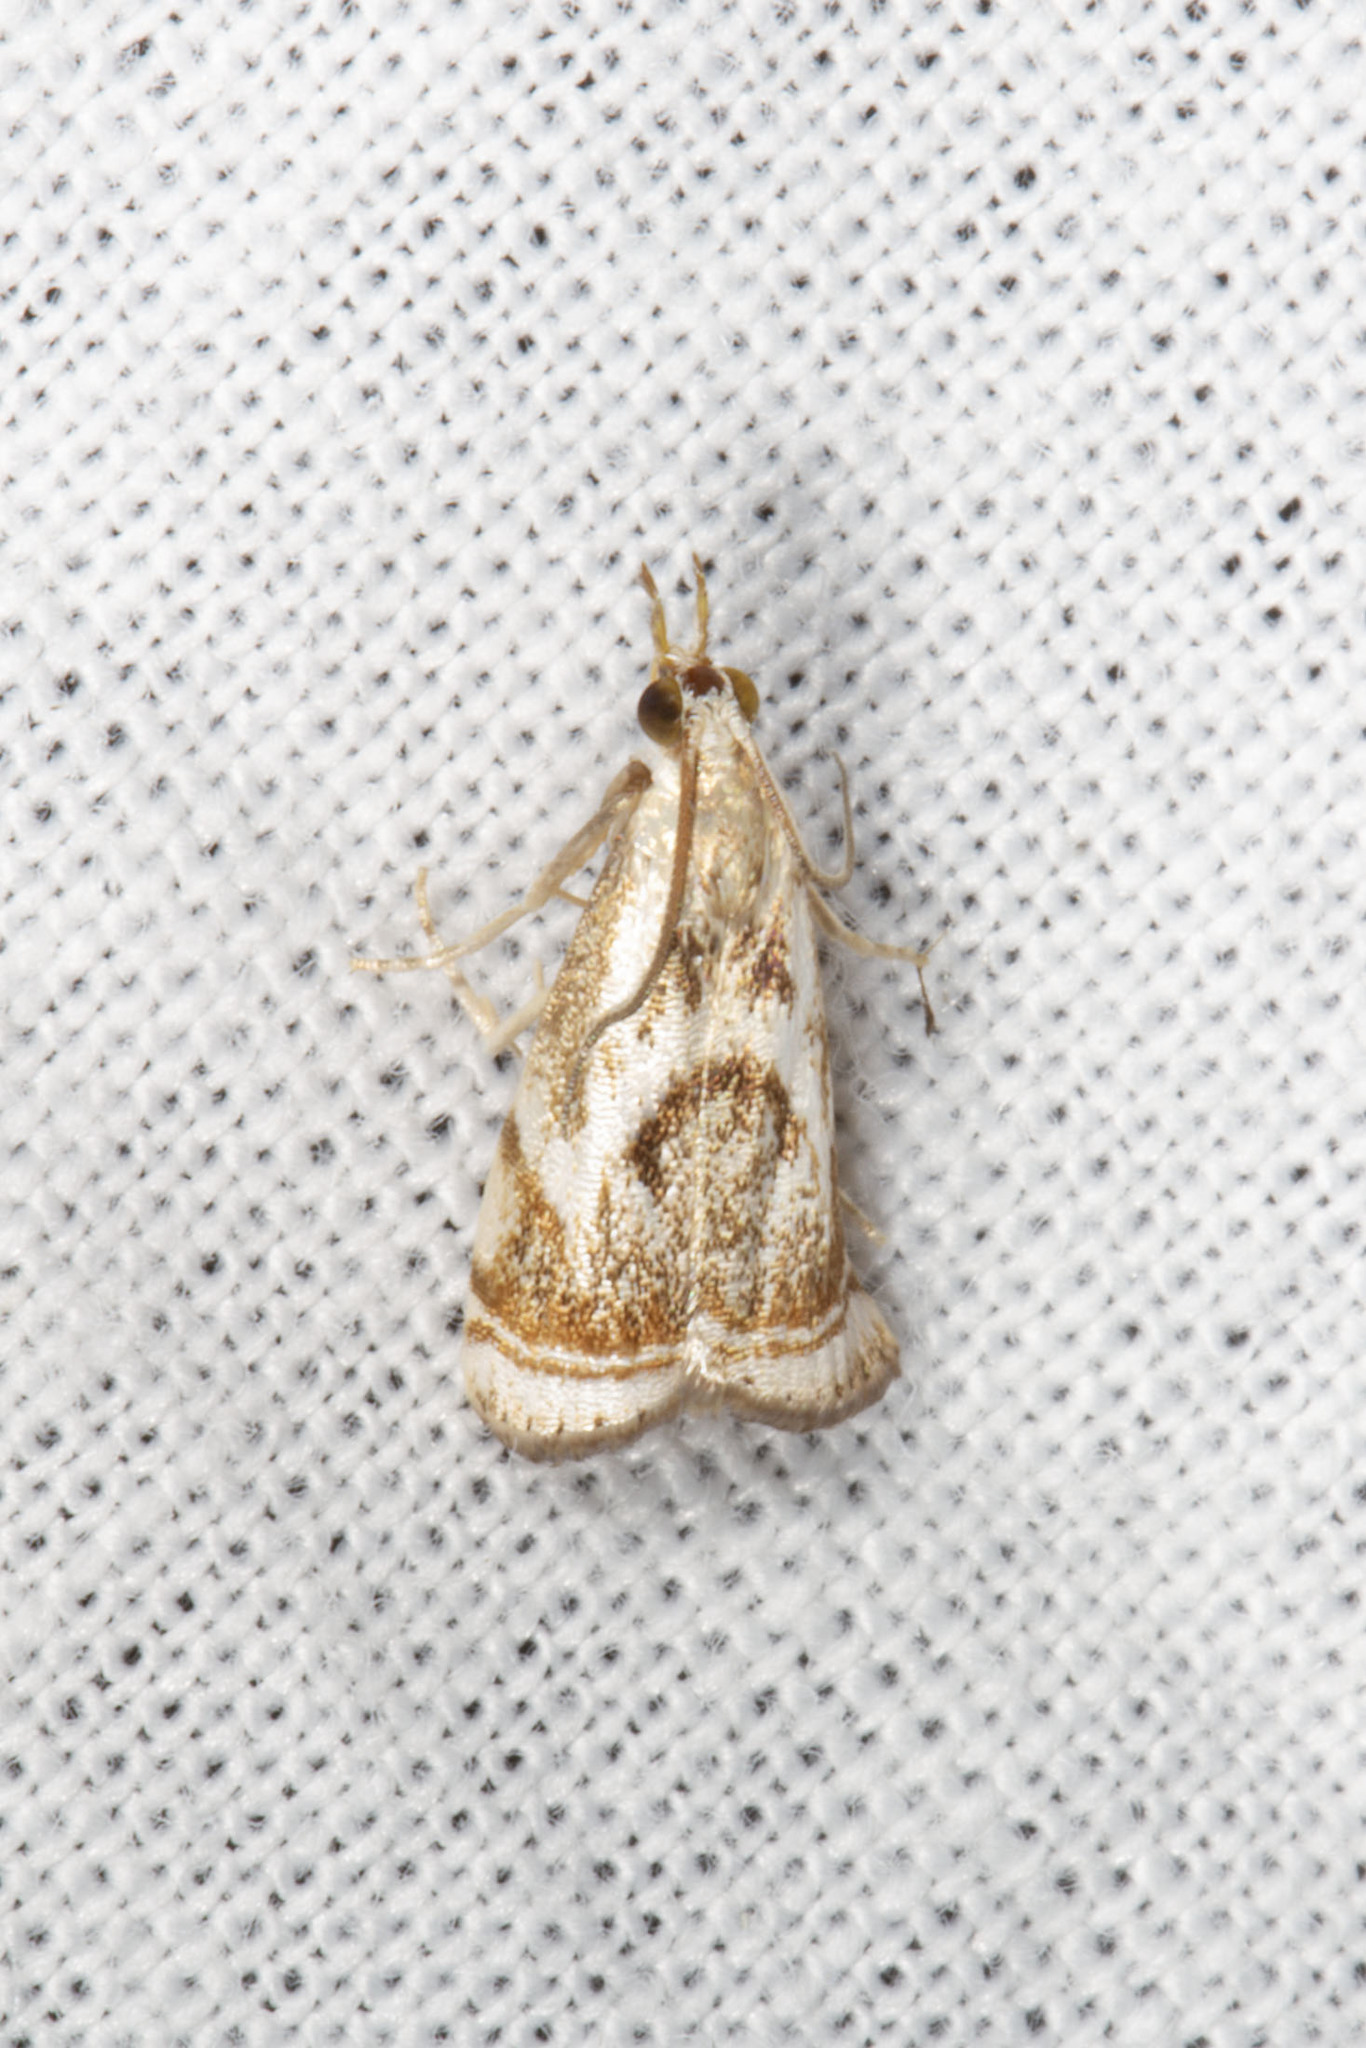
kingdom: Animalia
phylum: Arthropoda
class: Insecta
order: Lepidoptera
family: Crambidae
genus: Microcrambus
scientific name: Microcrambus elegans
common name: Elegant grass-veneer
